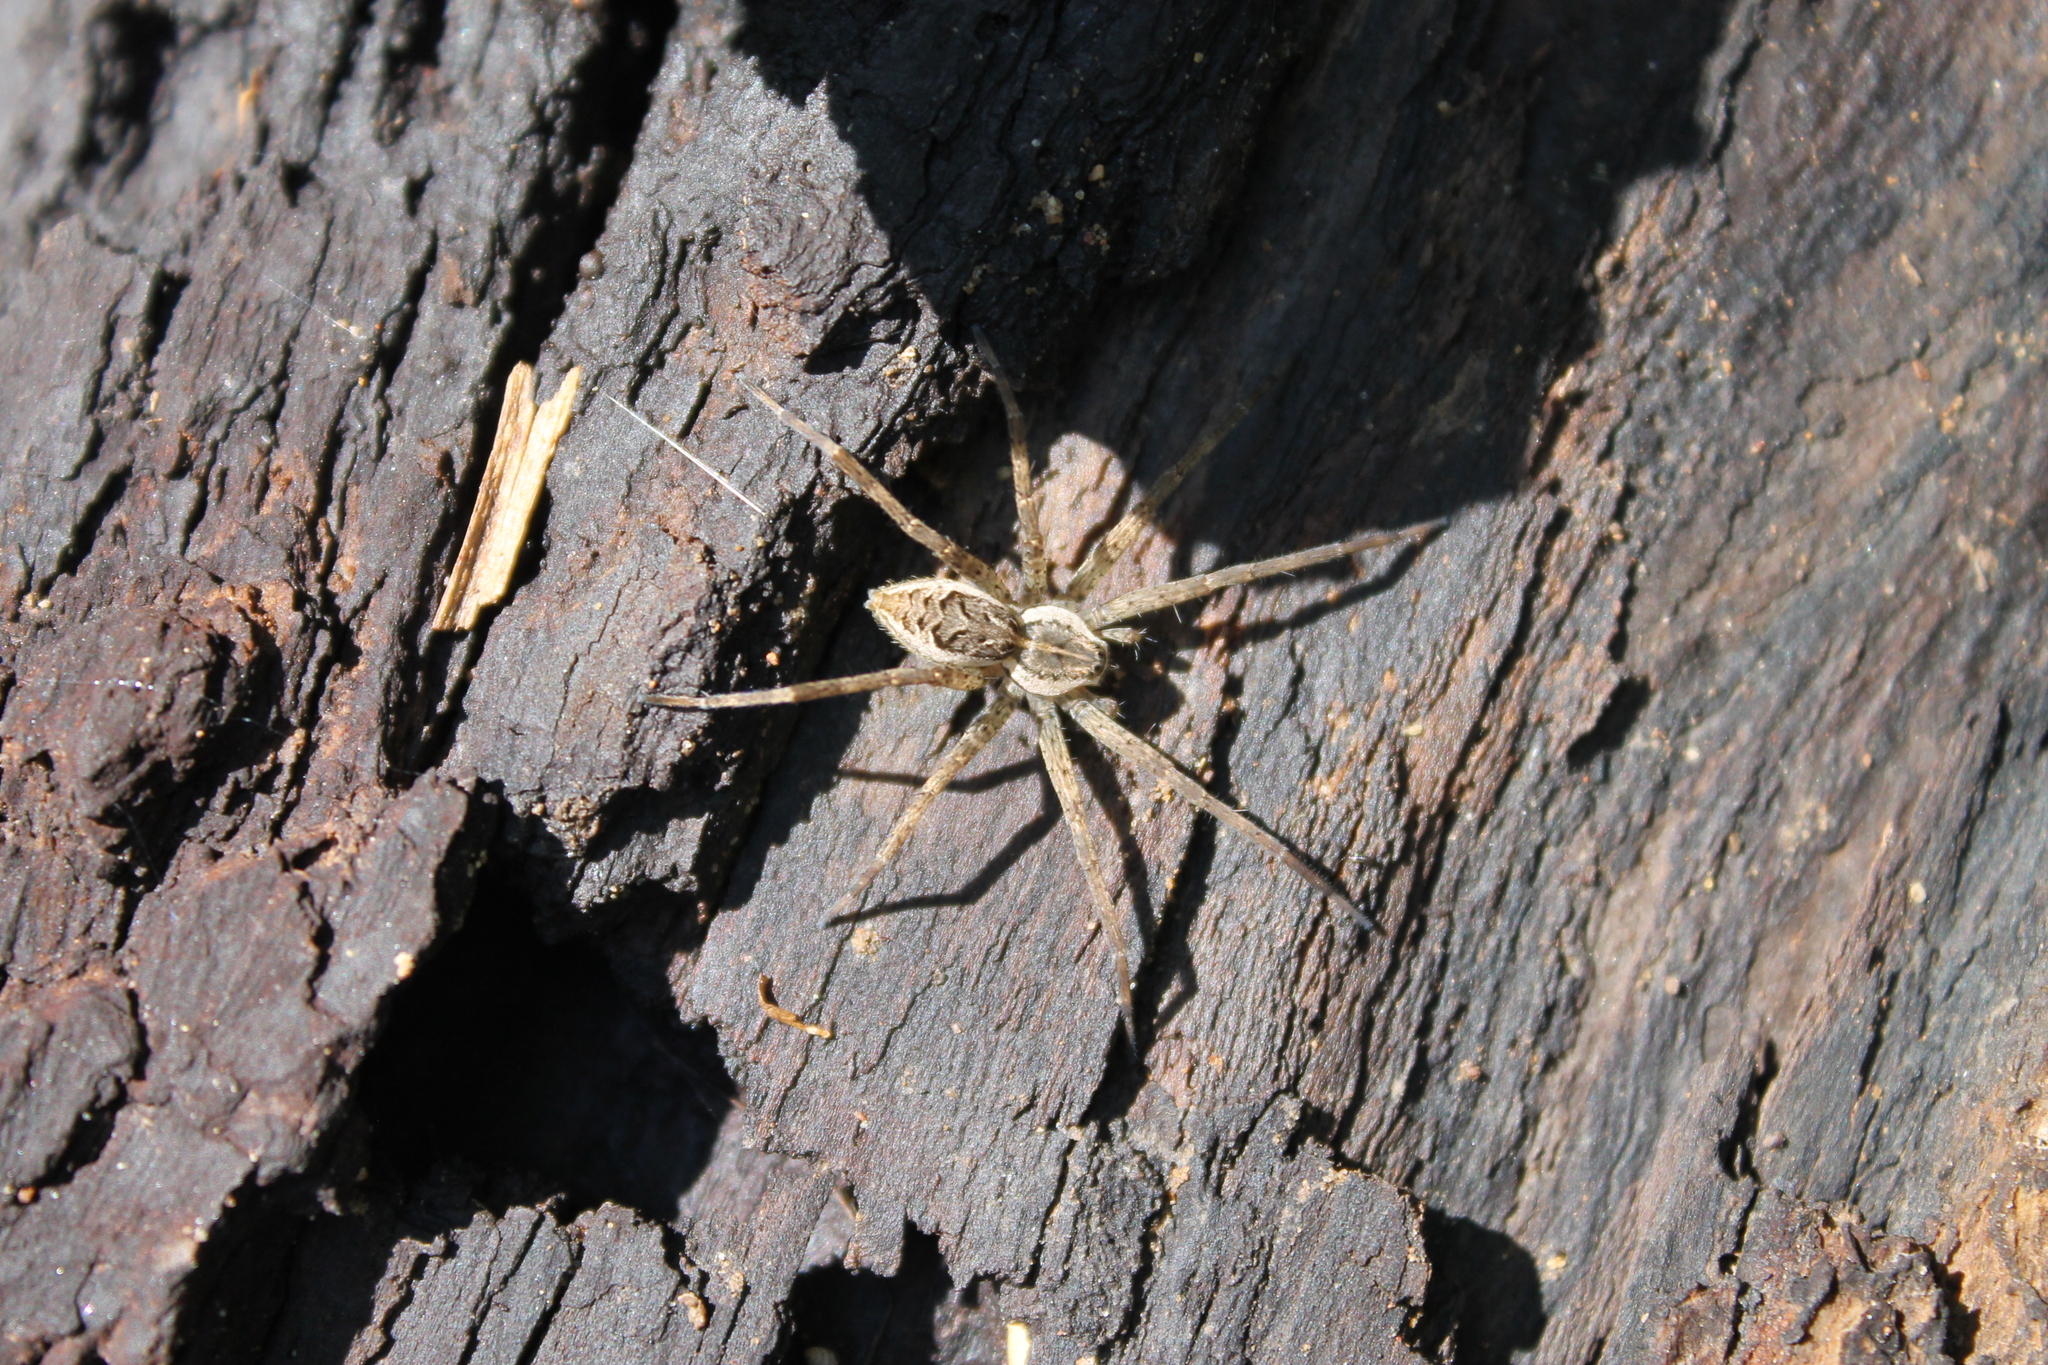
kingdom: Animalia
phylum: Arthropoda
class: Arachnida
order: Araneae
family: Pisauridae
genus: Dolomedes
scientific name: Dolomedes scriptus
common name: Striped fishing spider
